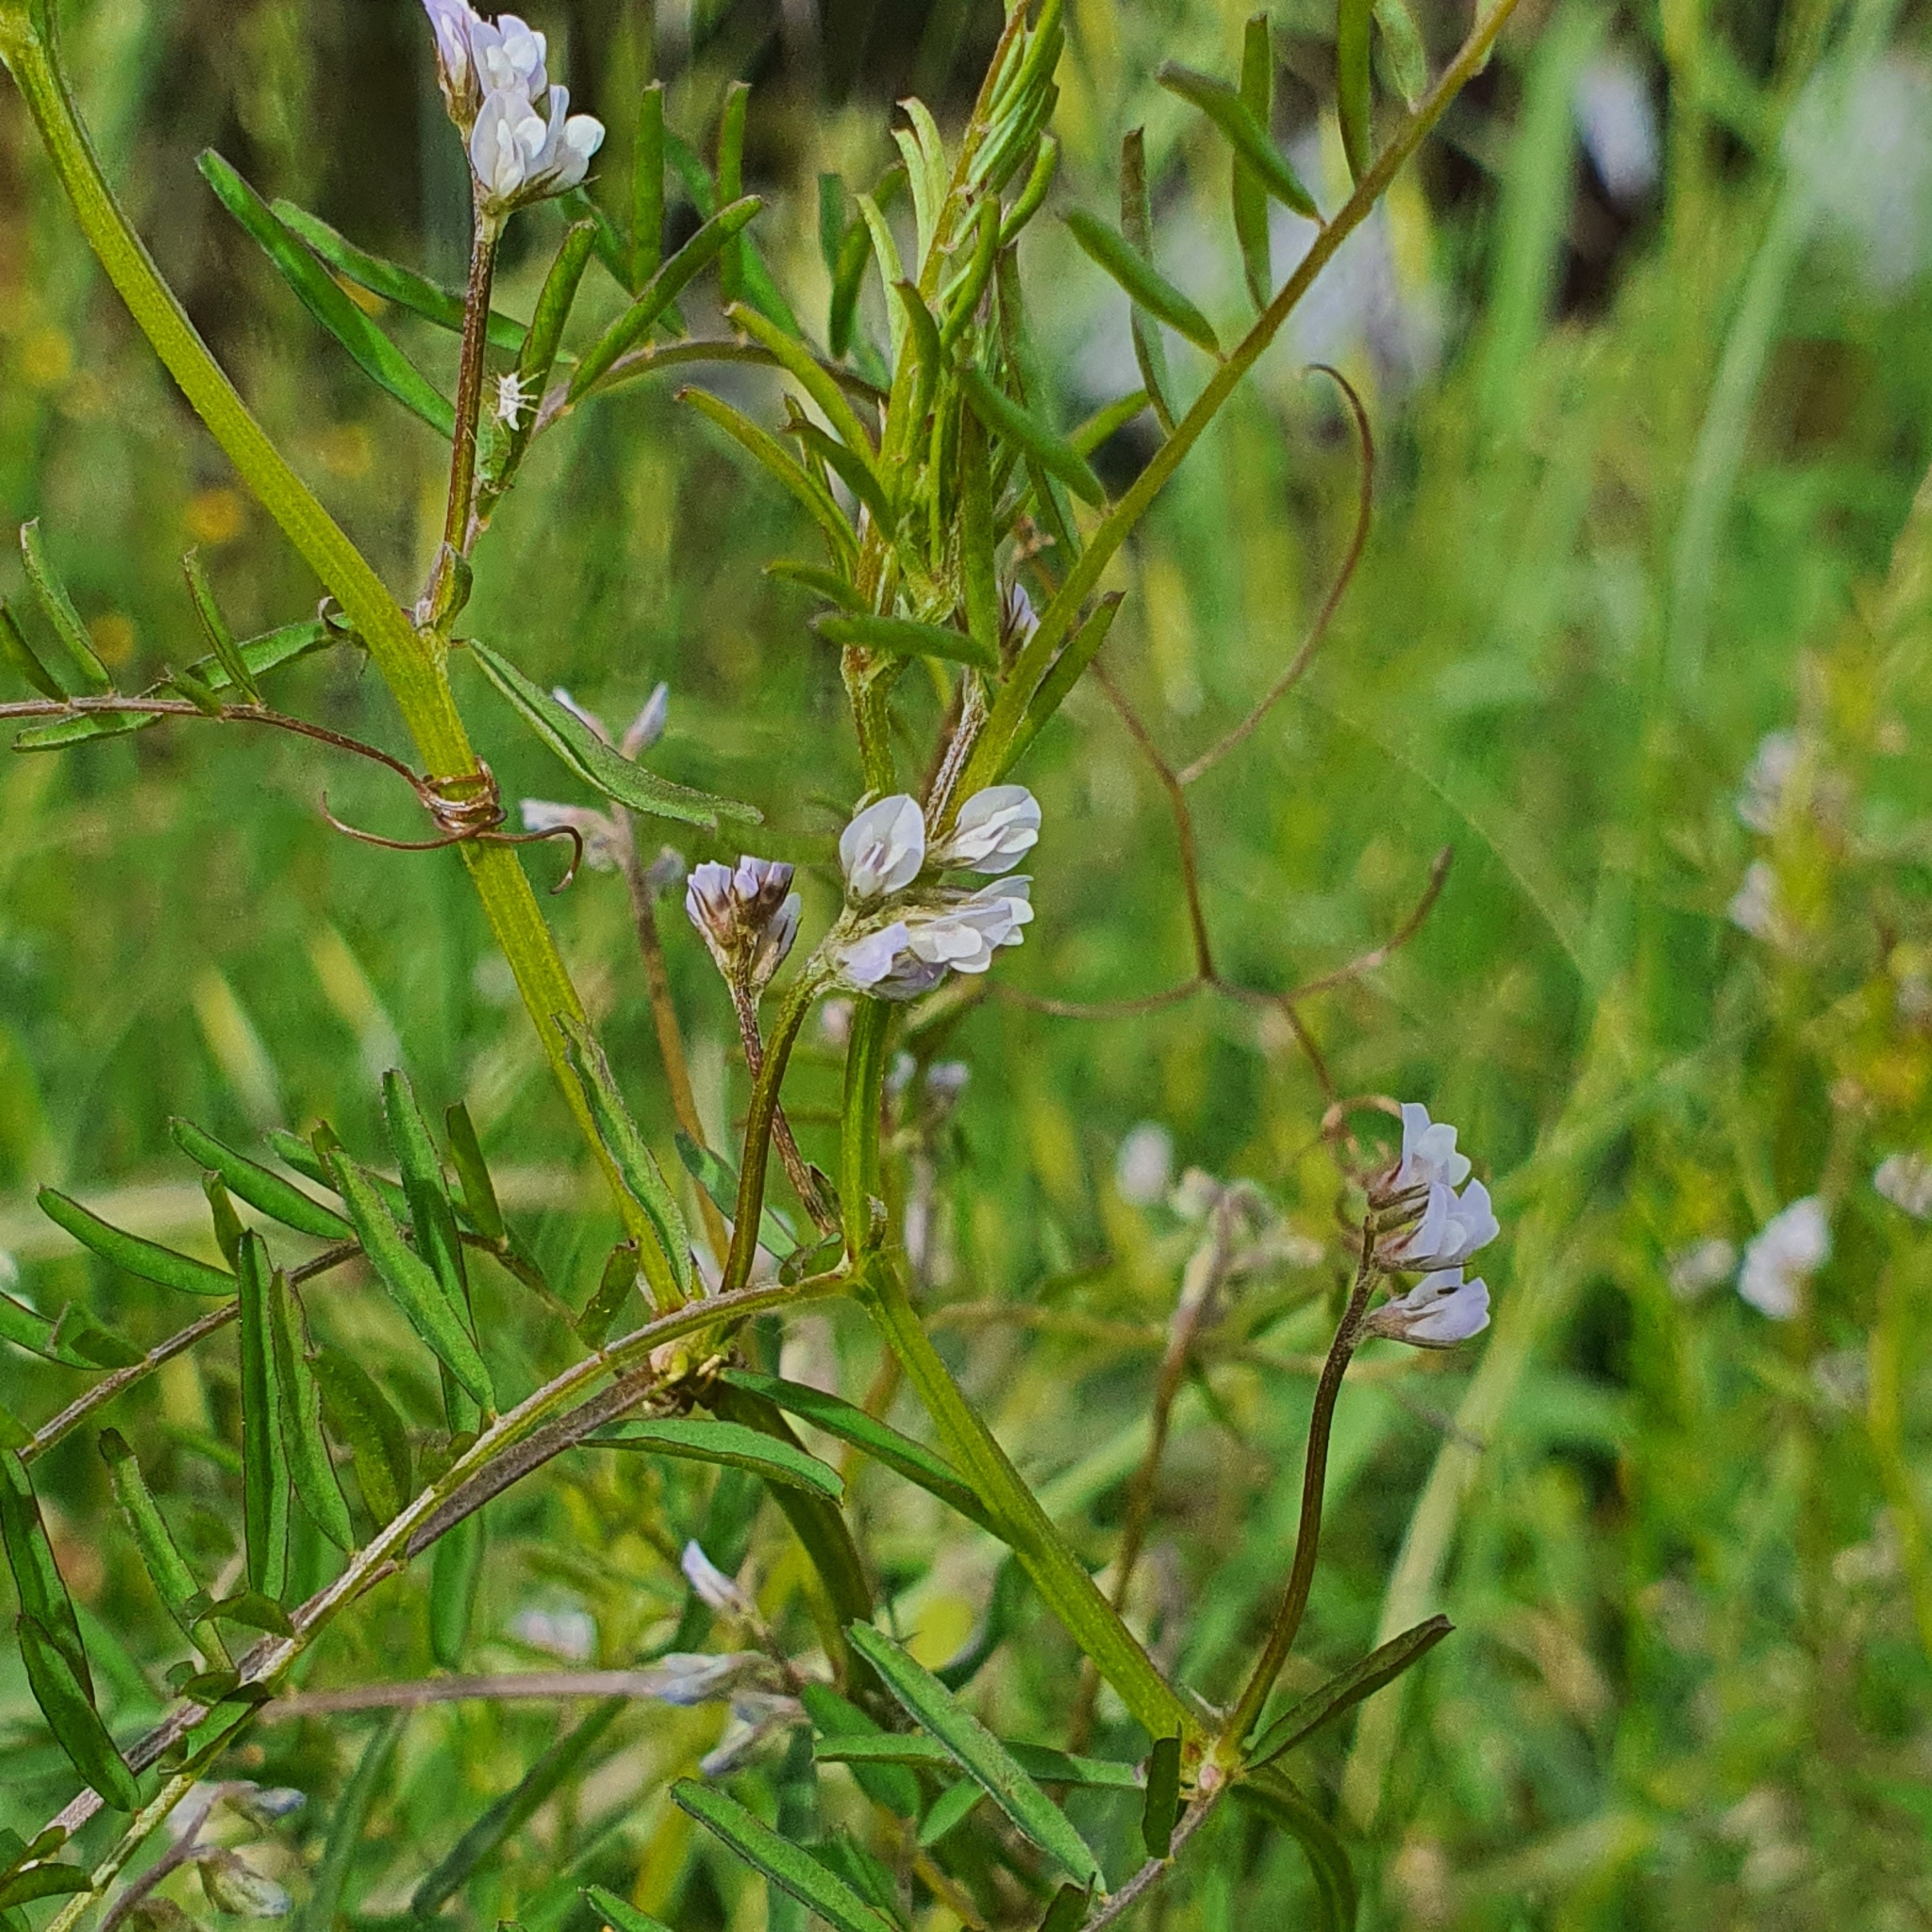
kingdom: Plantae
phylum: Tracheophyta
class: Magnoliopsida
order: Fabales
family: Fabaceae
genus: Vicia
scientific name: Vicia hirsuta
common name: Tiny vetch
